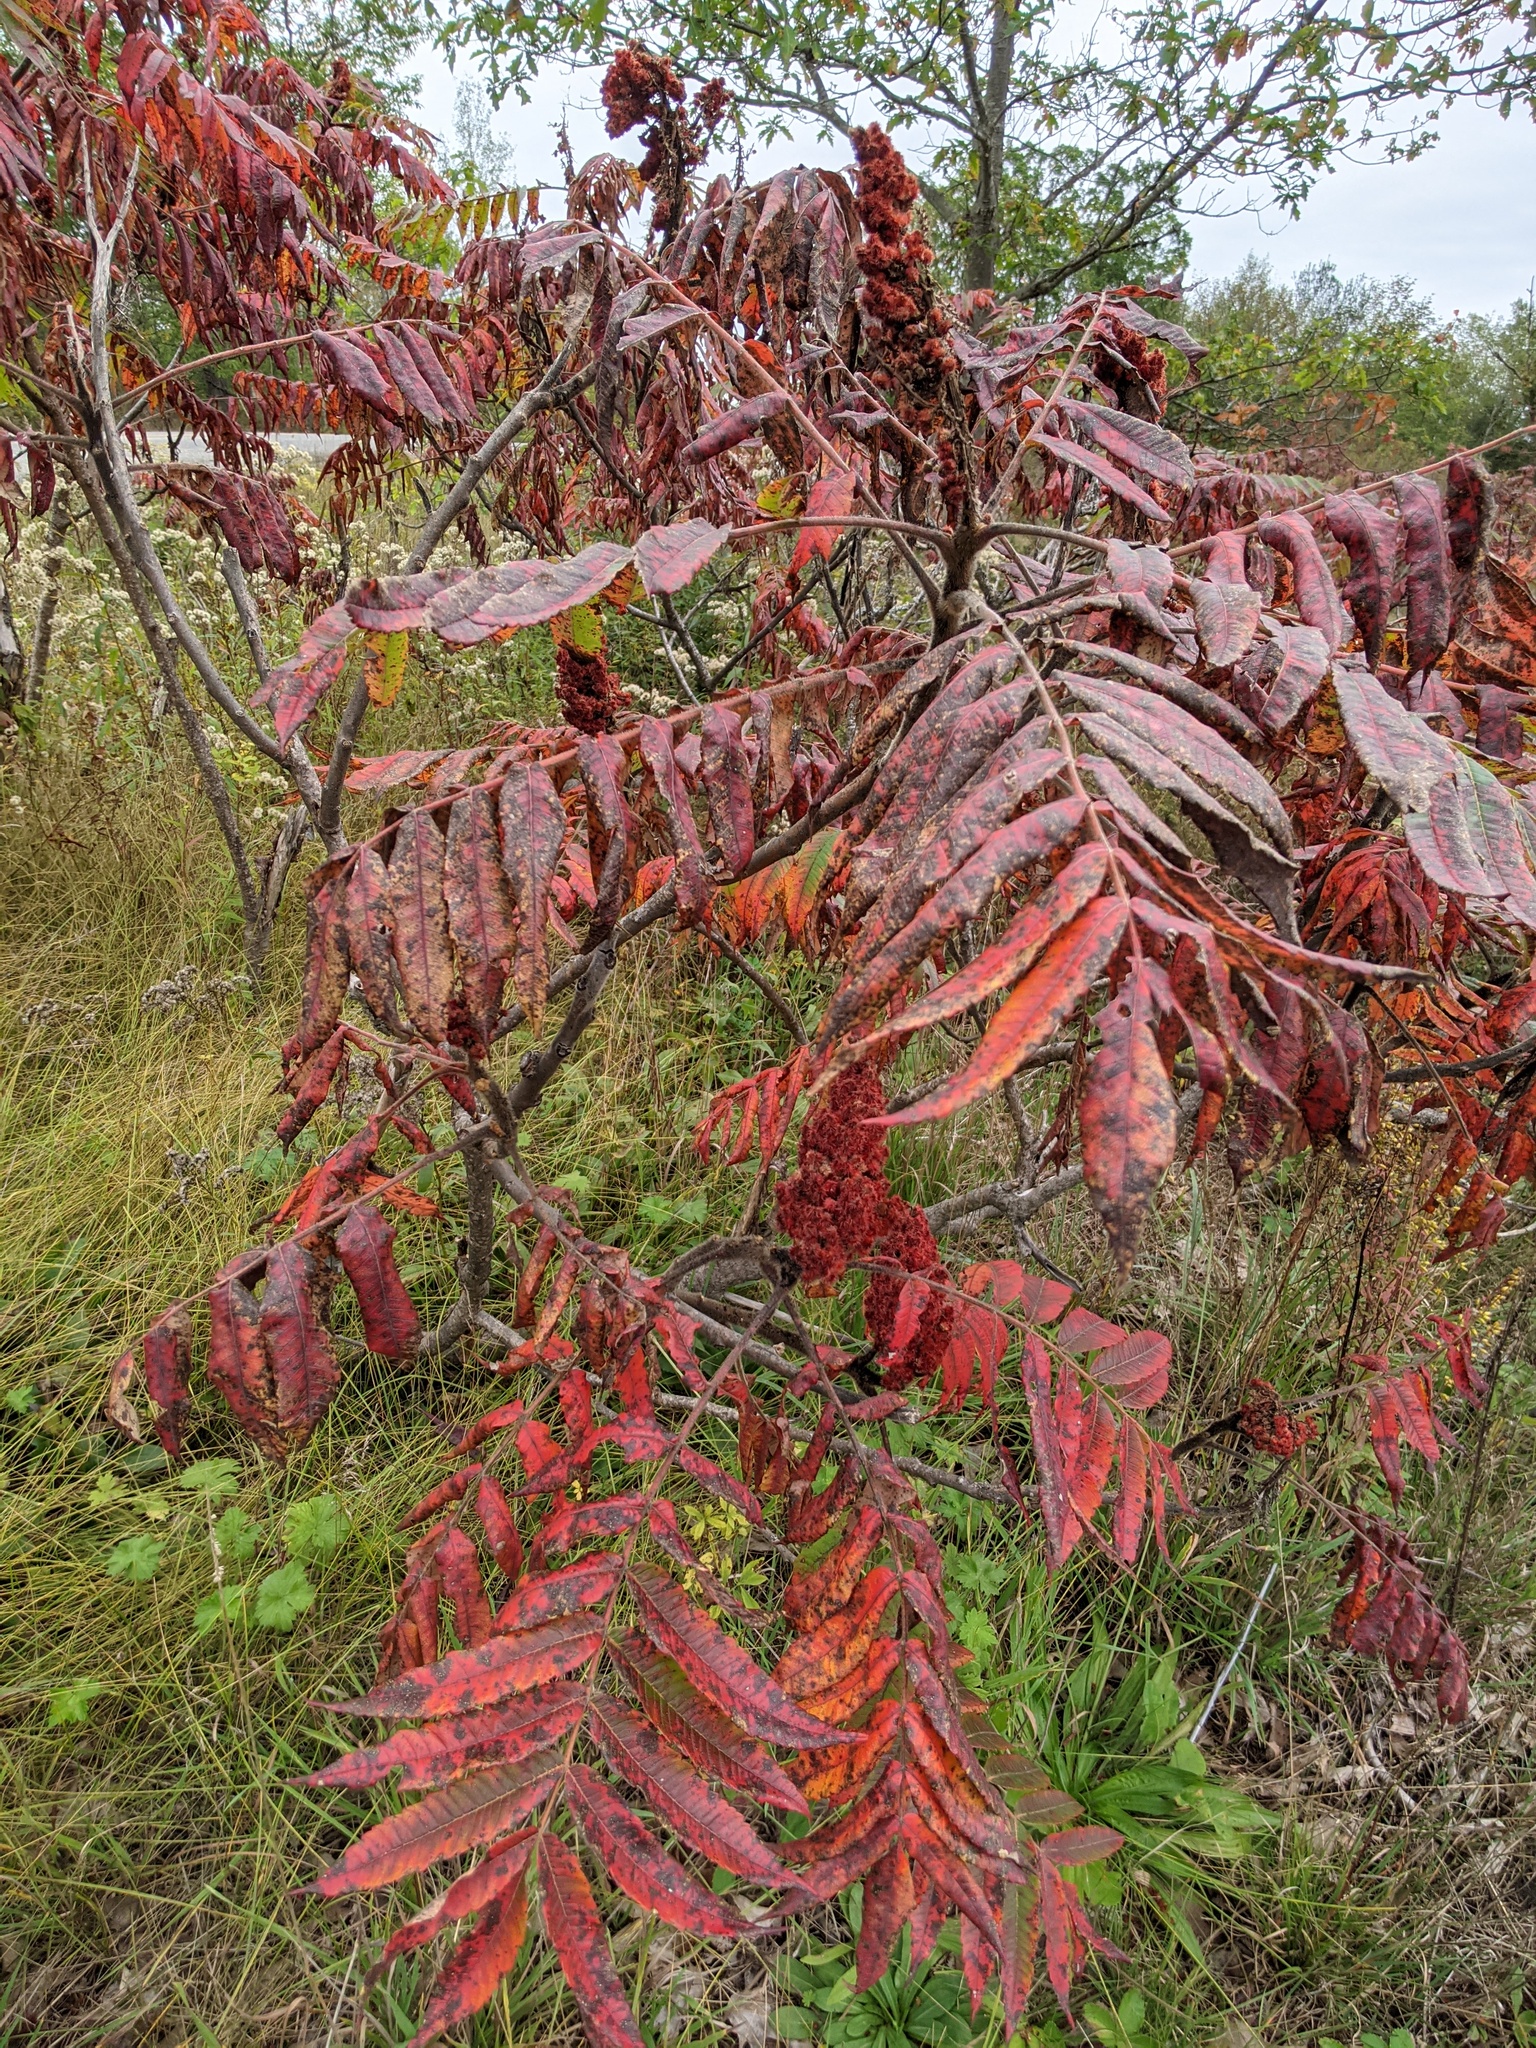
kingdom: Plantae
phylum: Tracheophyta
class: Magnoliopsida
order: Sapindales
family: Anacardiaceae
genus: Rhus
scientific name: Rhus typhina
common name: Staghorn sumac
